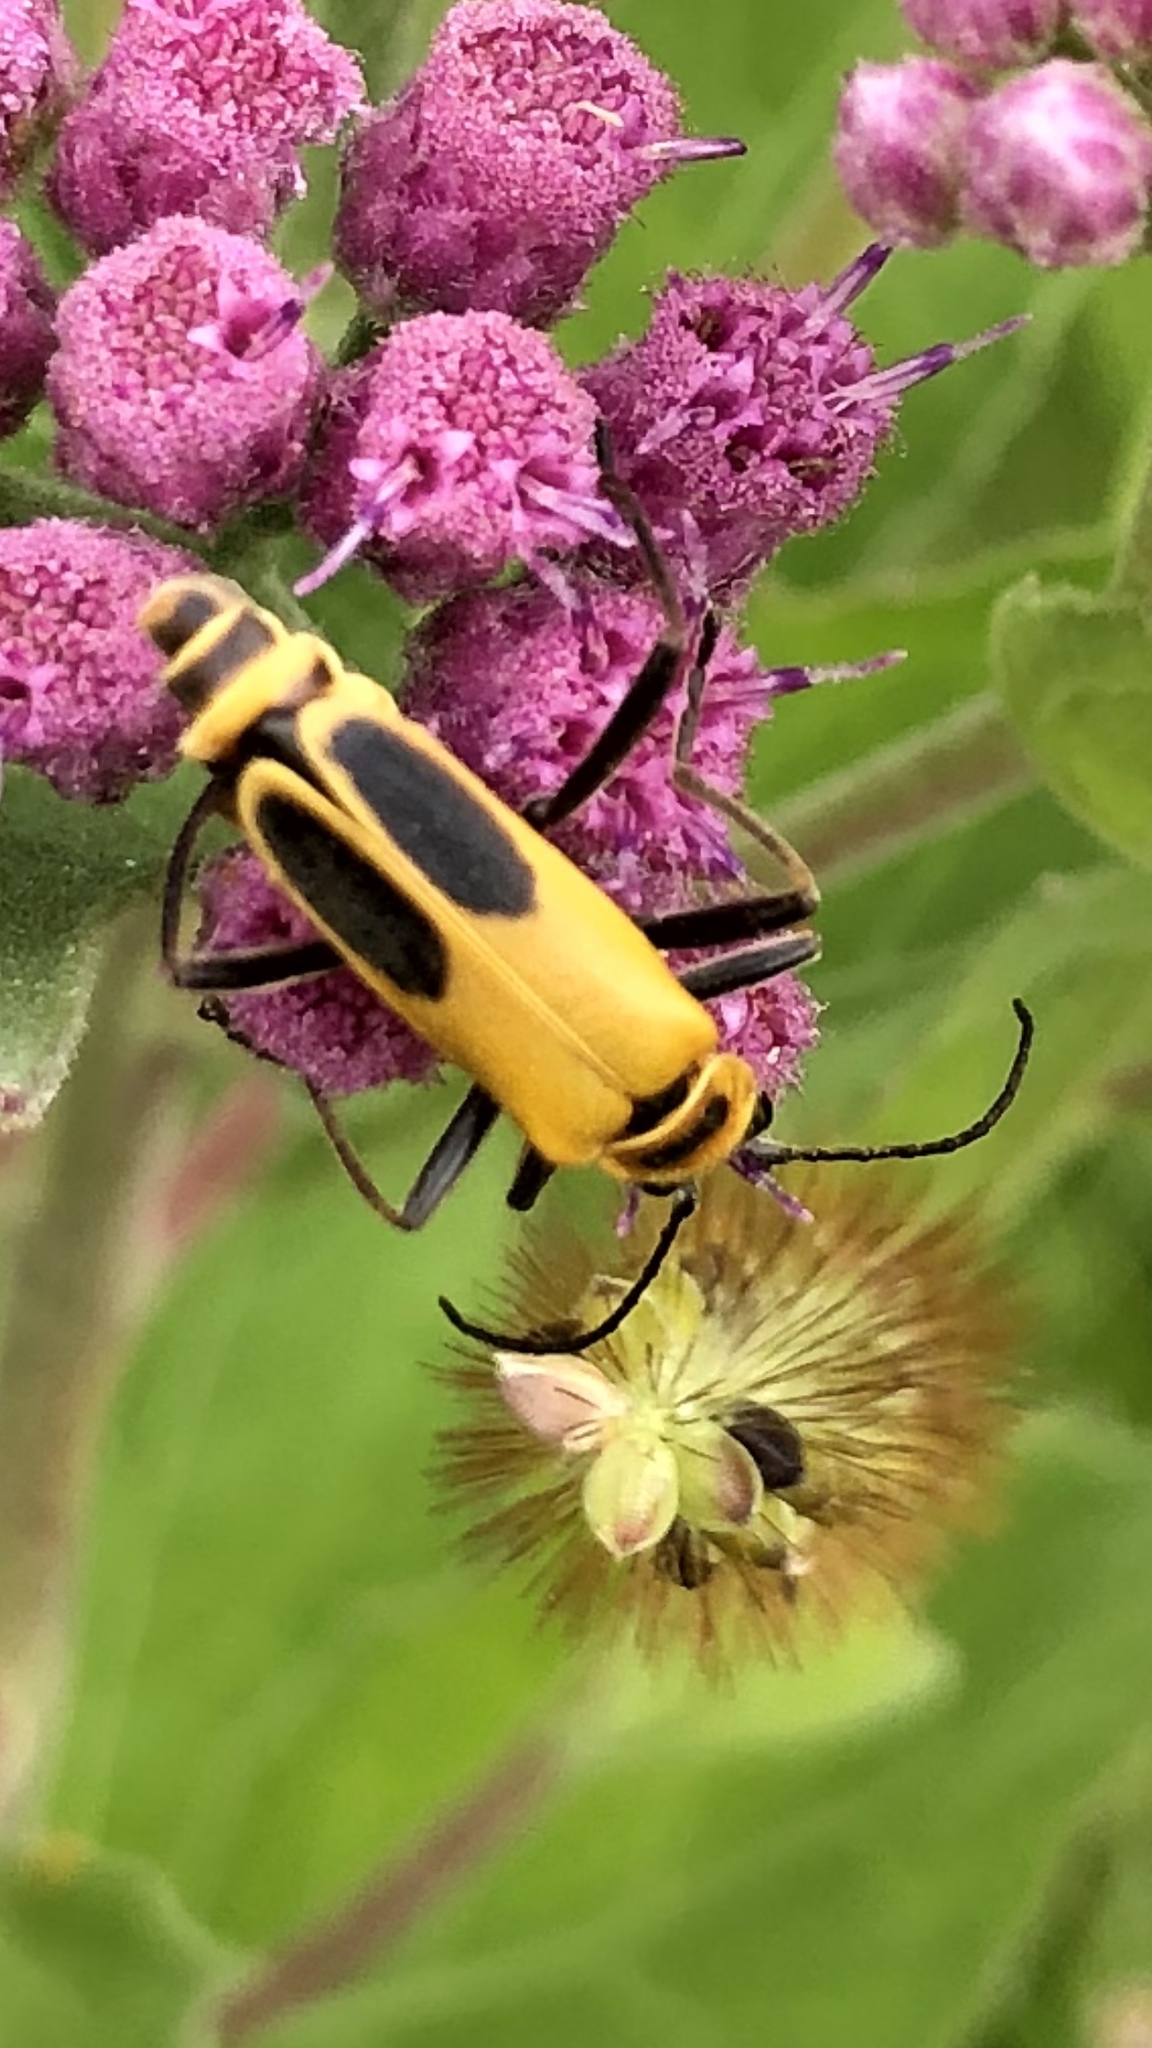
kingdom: Animalia
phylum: Arthropoda
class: Insecta
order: Coleoptera
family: Cantharidae
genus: Chauliognathus
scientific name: Chauliognathus pensylvanicus
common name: Goldenrod soldier beetle
